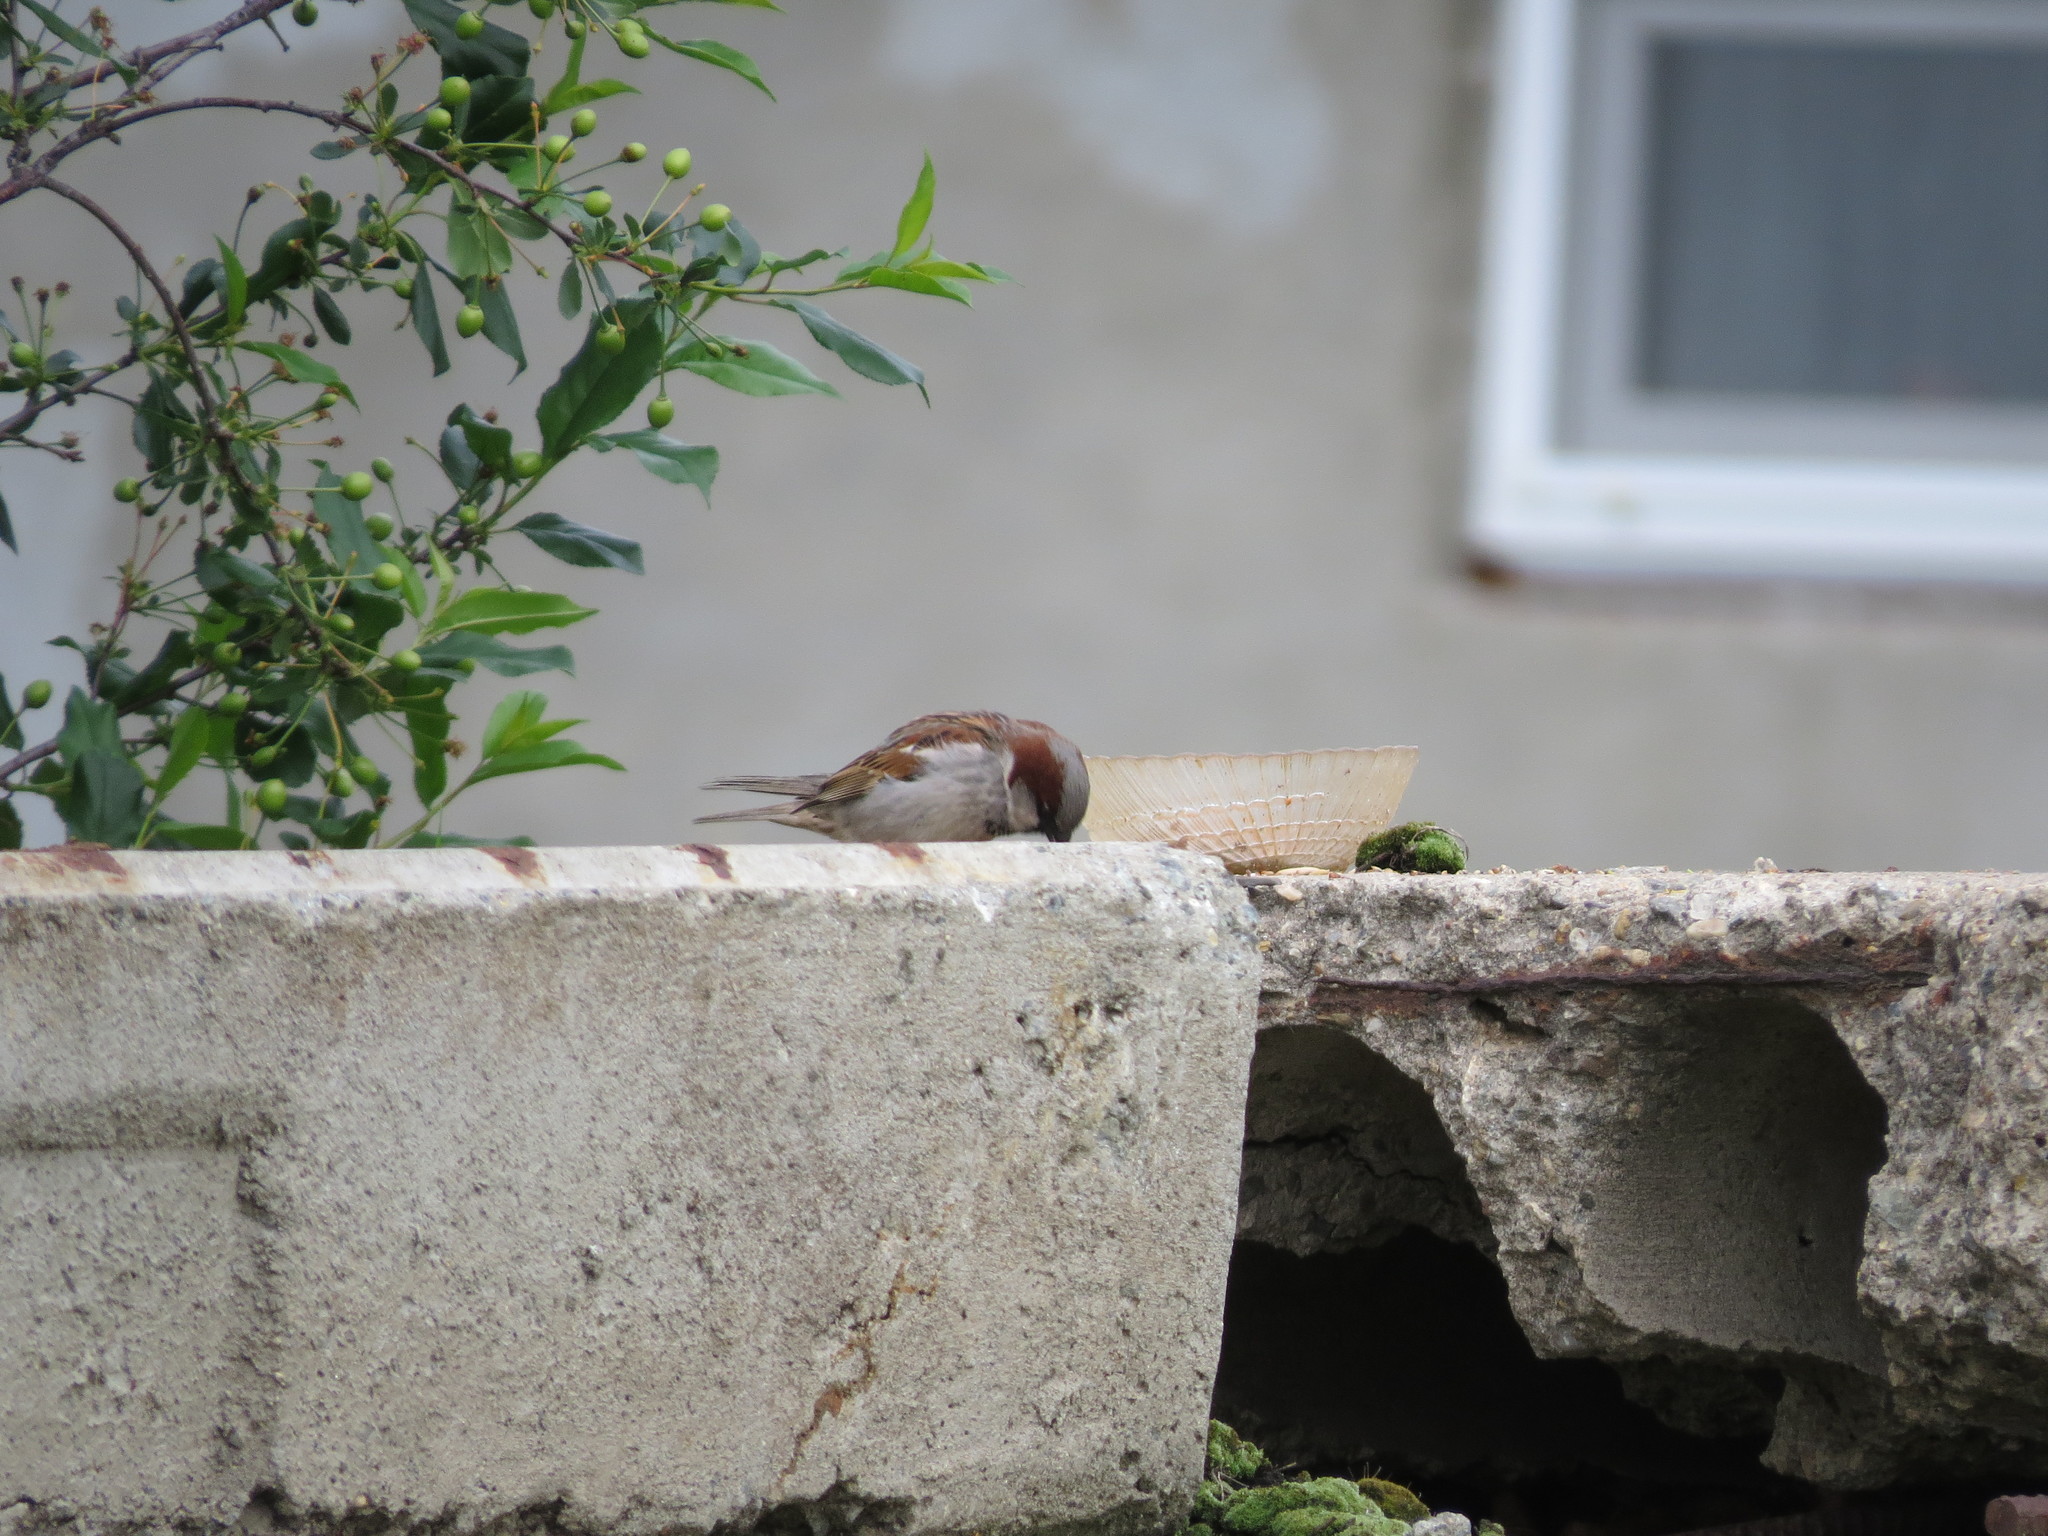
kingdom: Animalia
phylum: Chordata
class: Aves
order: Passeriformes
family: Passeridae
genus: Passer
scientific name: Passer domesticus
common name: House sparrow
